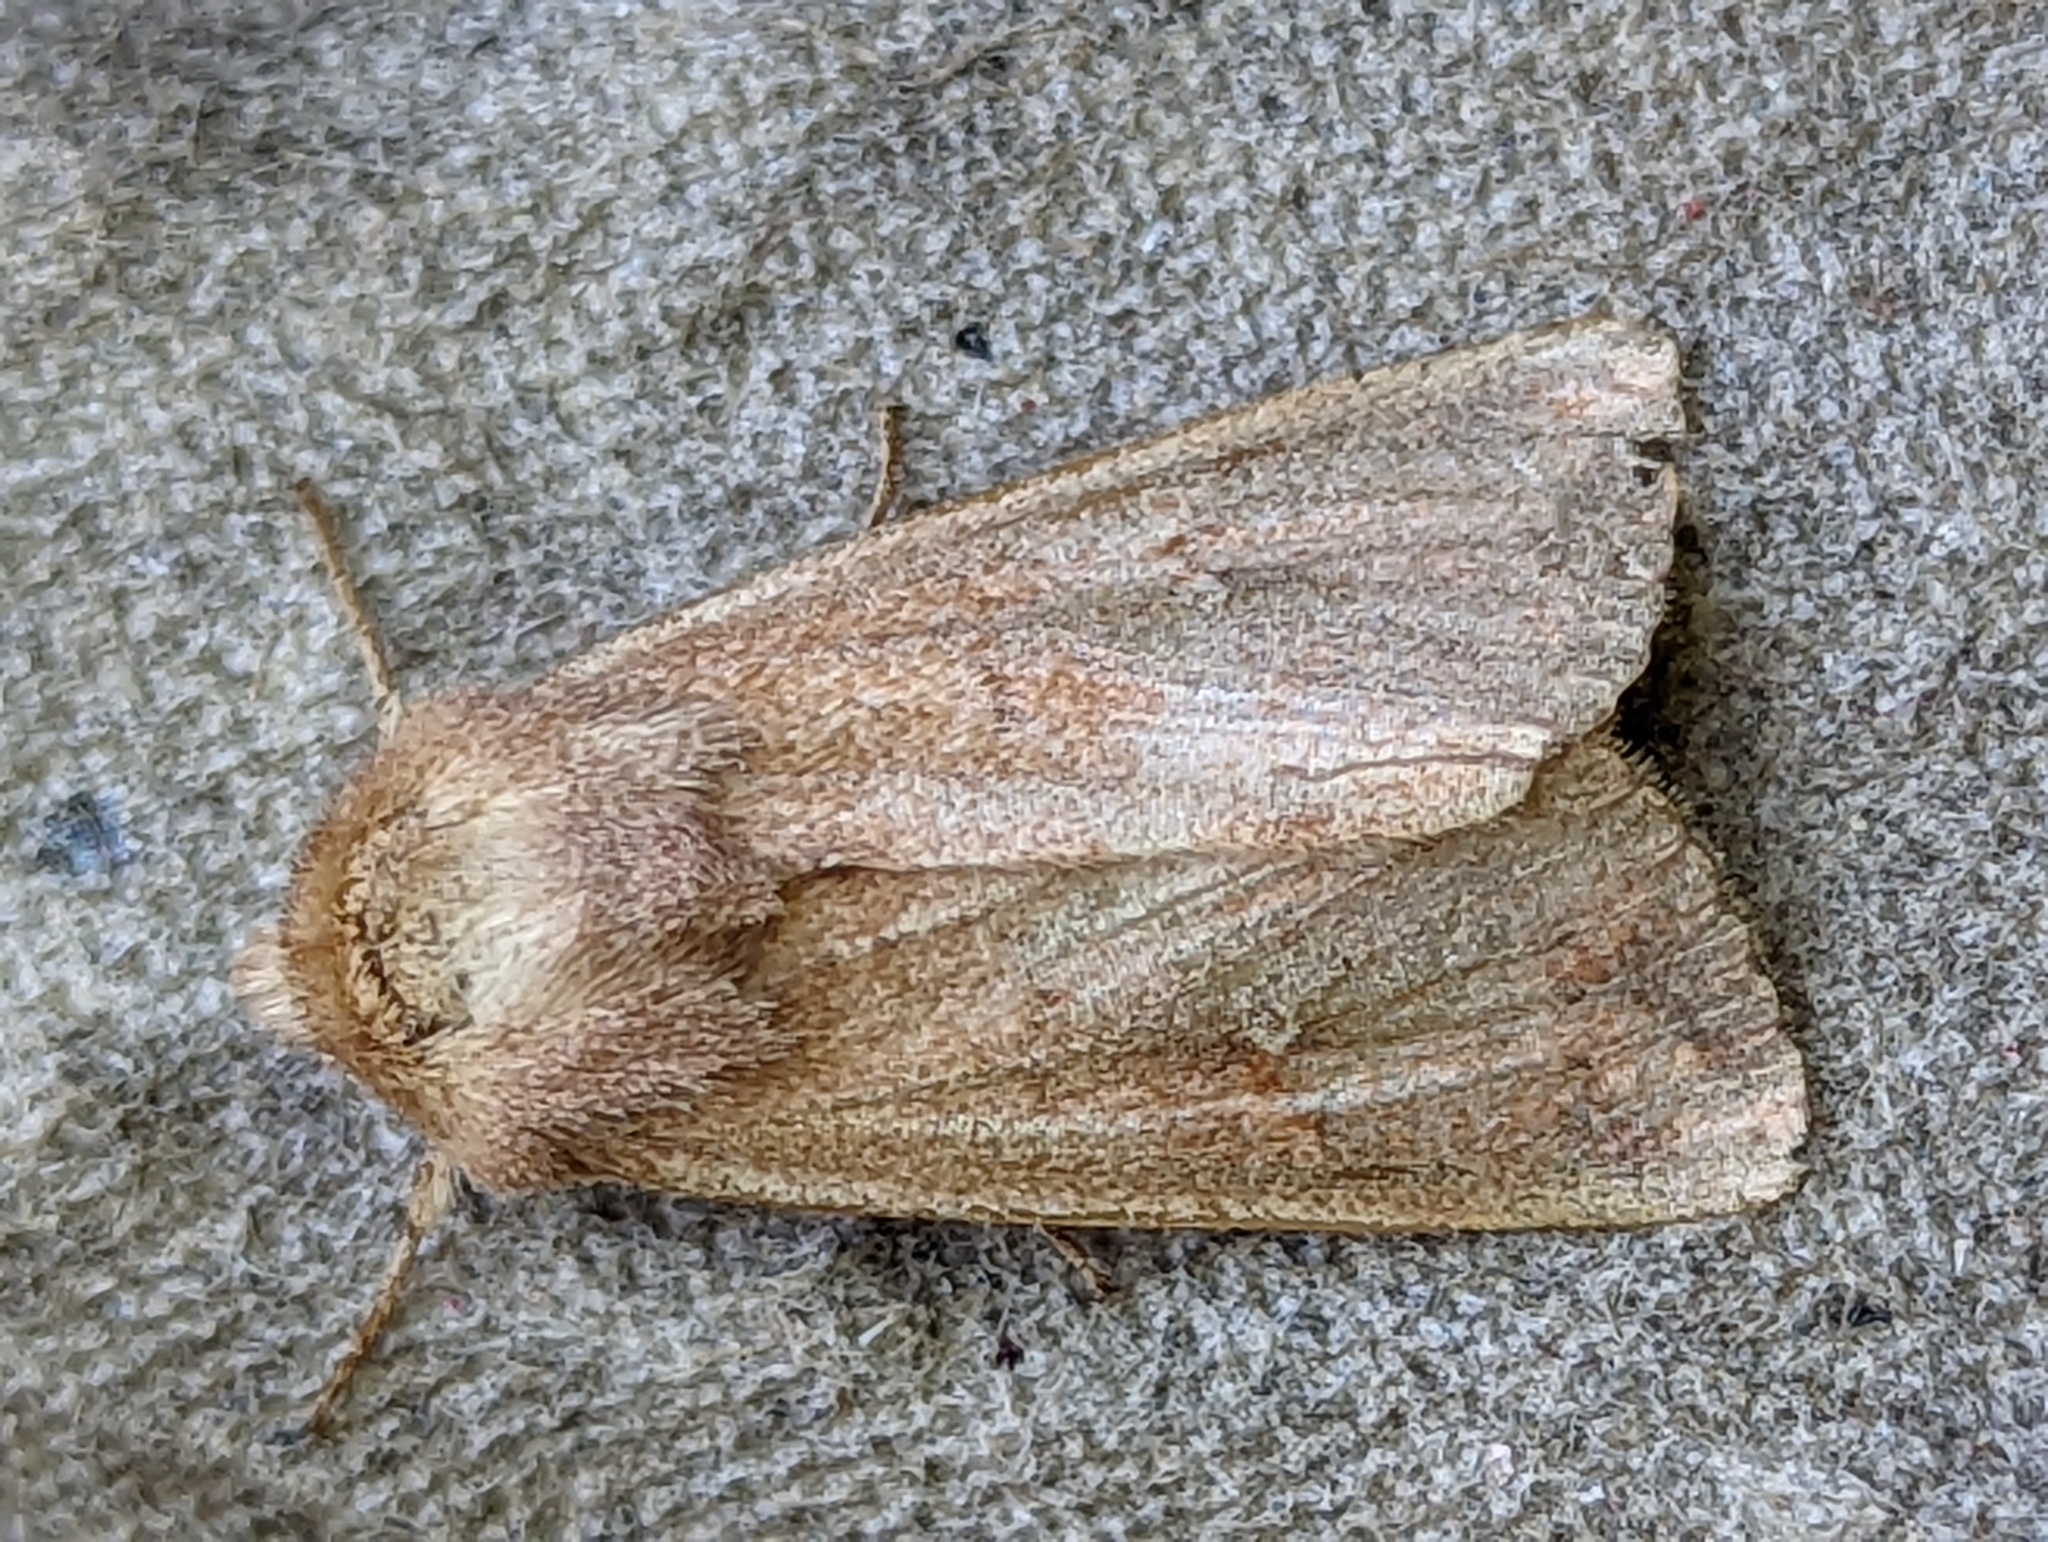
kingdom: Animalia
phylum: Arthropoda
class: Insecta
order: Lepidoptera
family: Noctuidae
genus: Mythimna
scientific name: Mythimna albipuncta
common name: White-point
